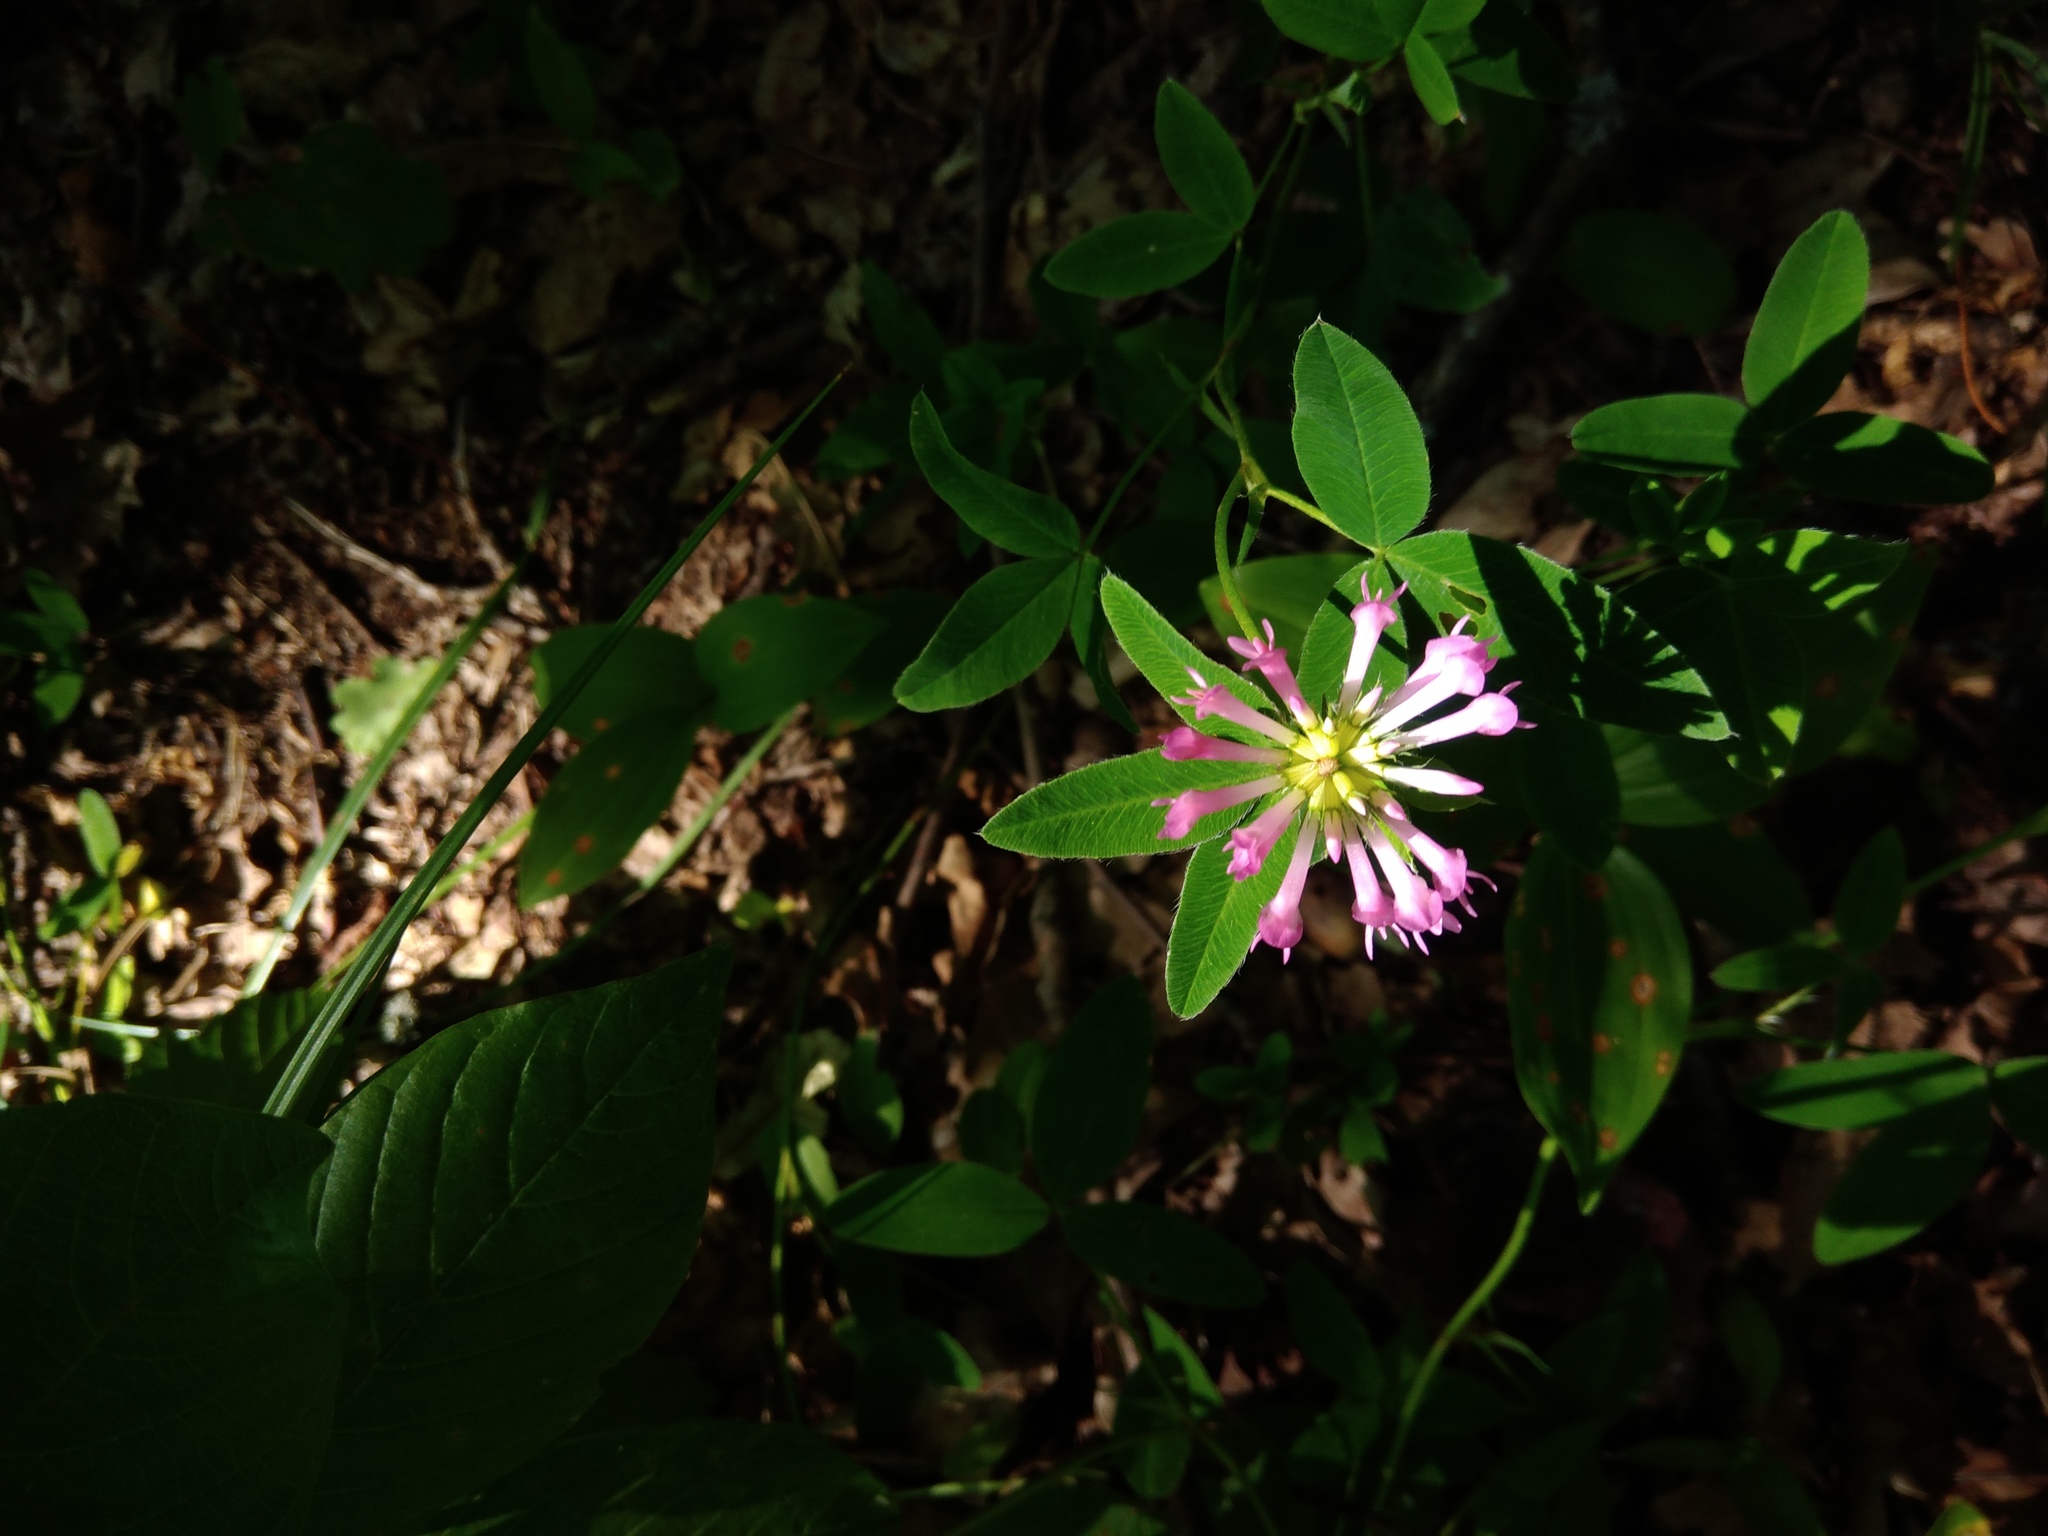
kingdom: Plantae
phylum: Tracheophyta
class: Magnoliopsida
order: Fabales
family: Fabaceae
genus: Trifolium
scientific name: Trifolium medium
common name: Zigzag clover
